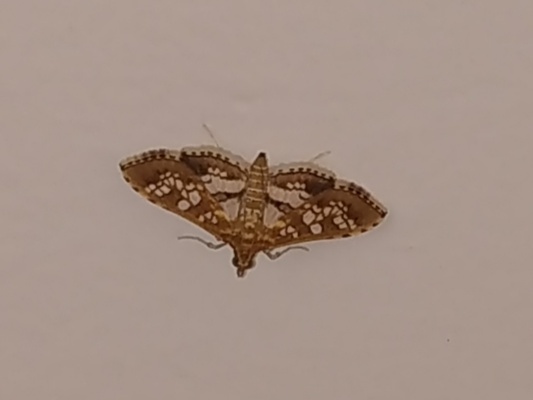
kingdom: Animalia
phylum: Arthropoda
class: Insecta
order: Lepidoptera
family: Crambidae
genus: Sameodes
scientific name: Sameodes cancellalis
